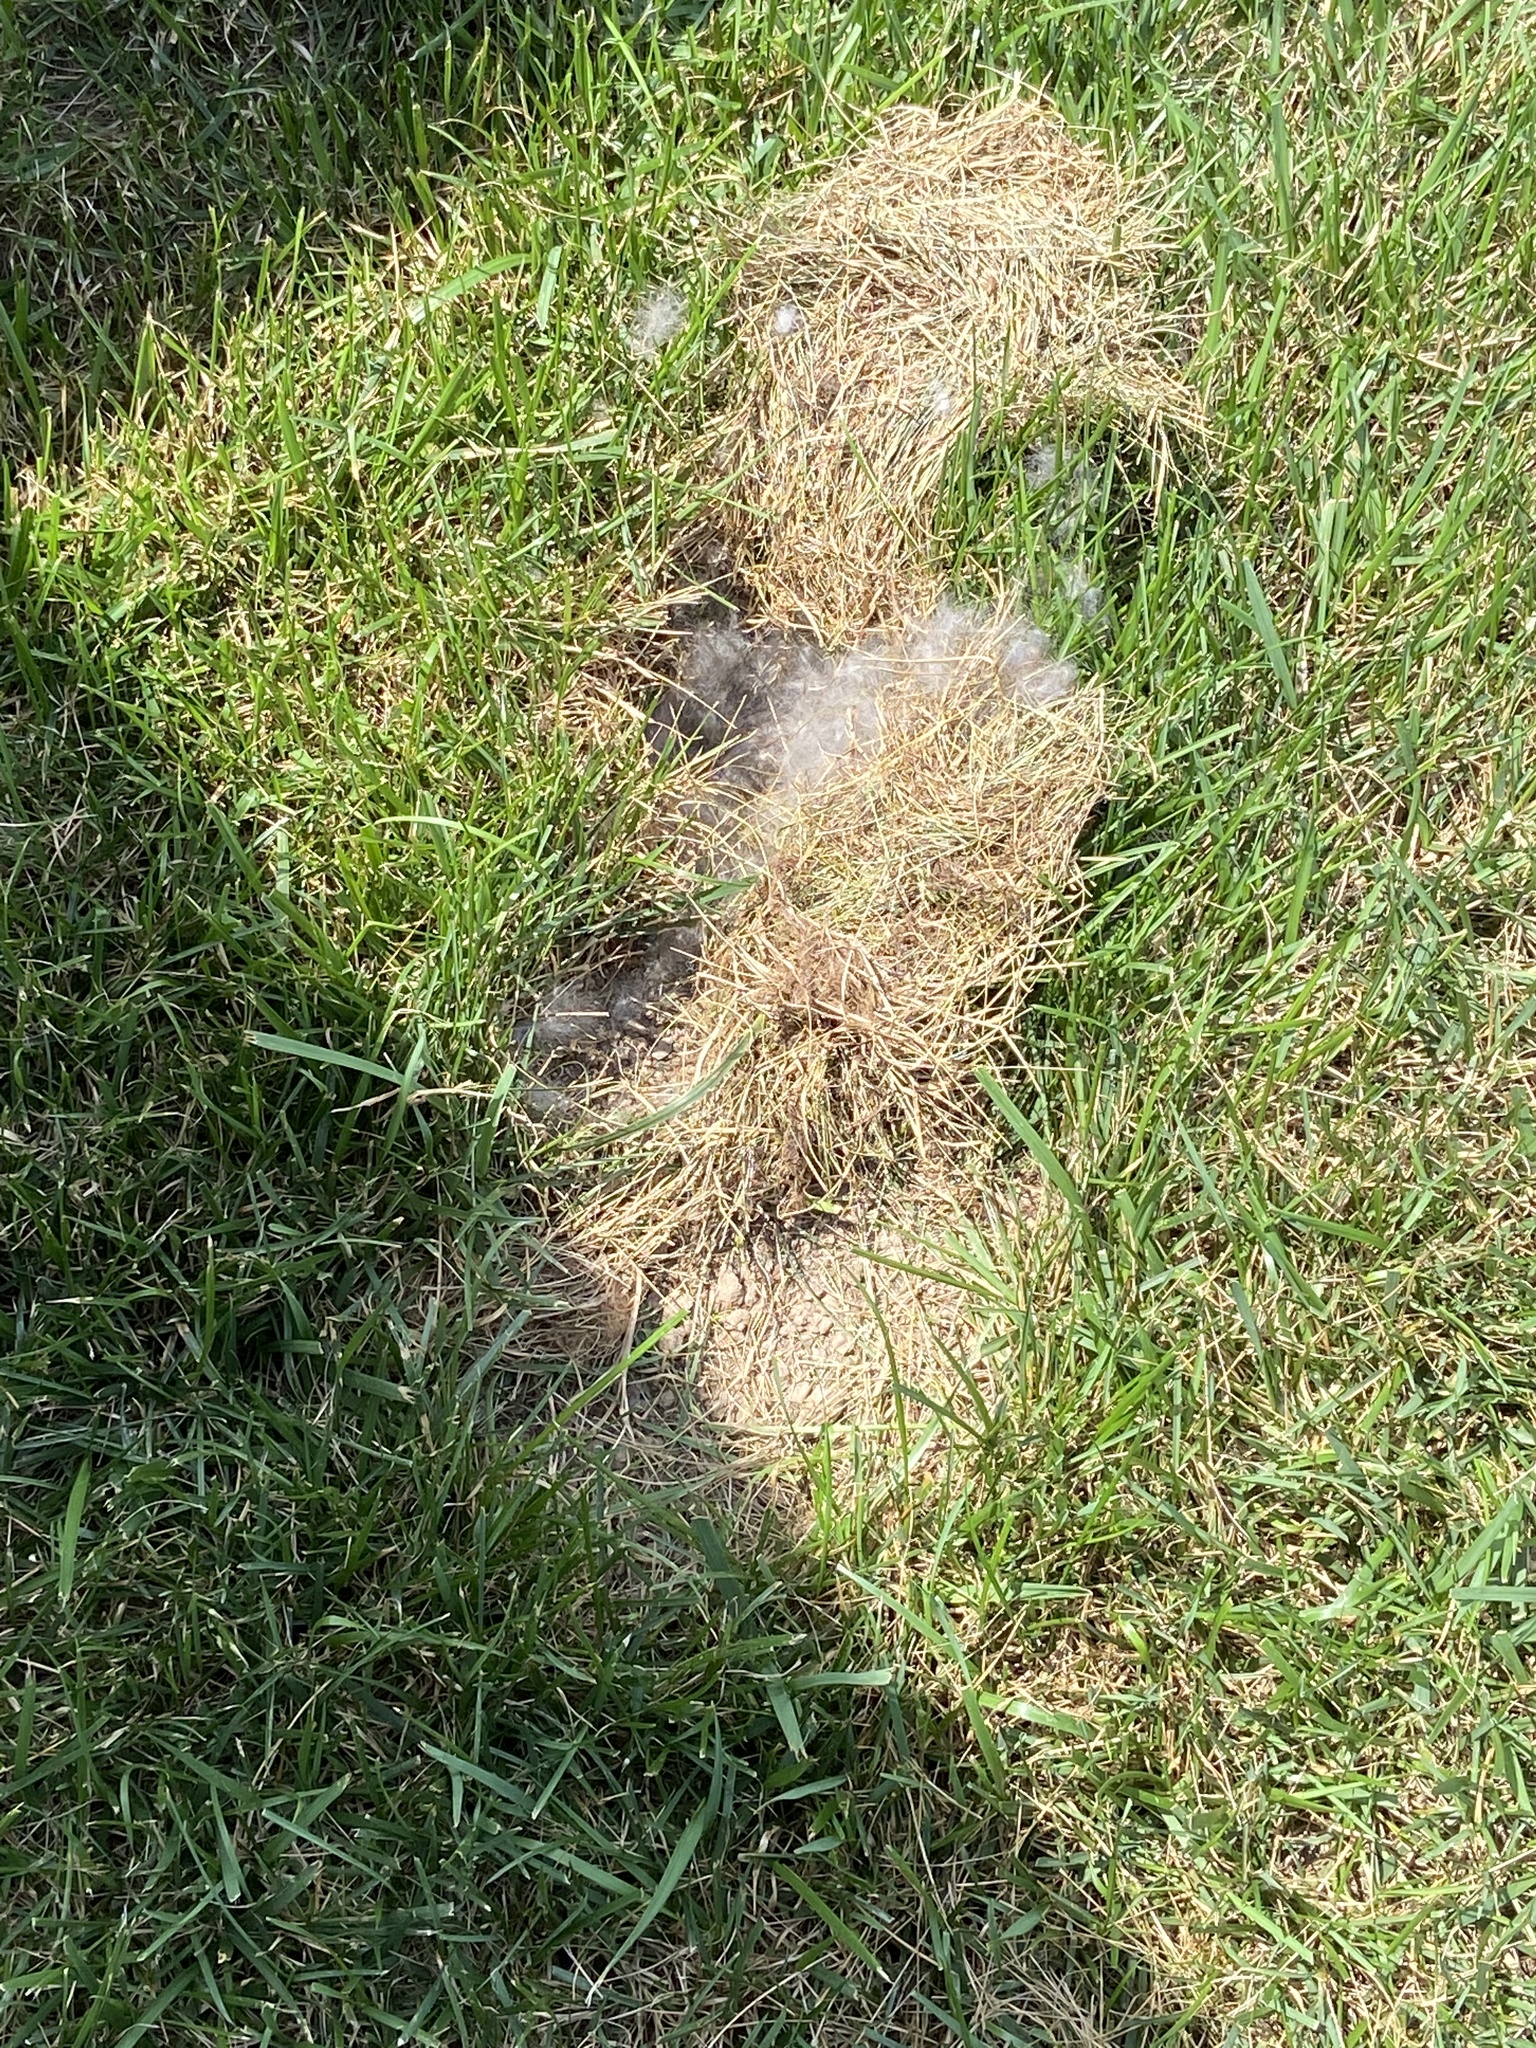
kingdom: Animalia
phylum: Chordata
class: Mammalia
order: Lagomorpha
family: Leporidae
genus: Sylvilagus
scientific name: Sylvilagus floridanus
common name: Eastern cottontail
